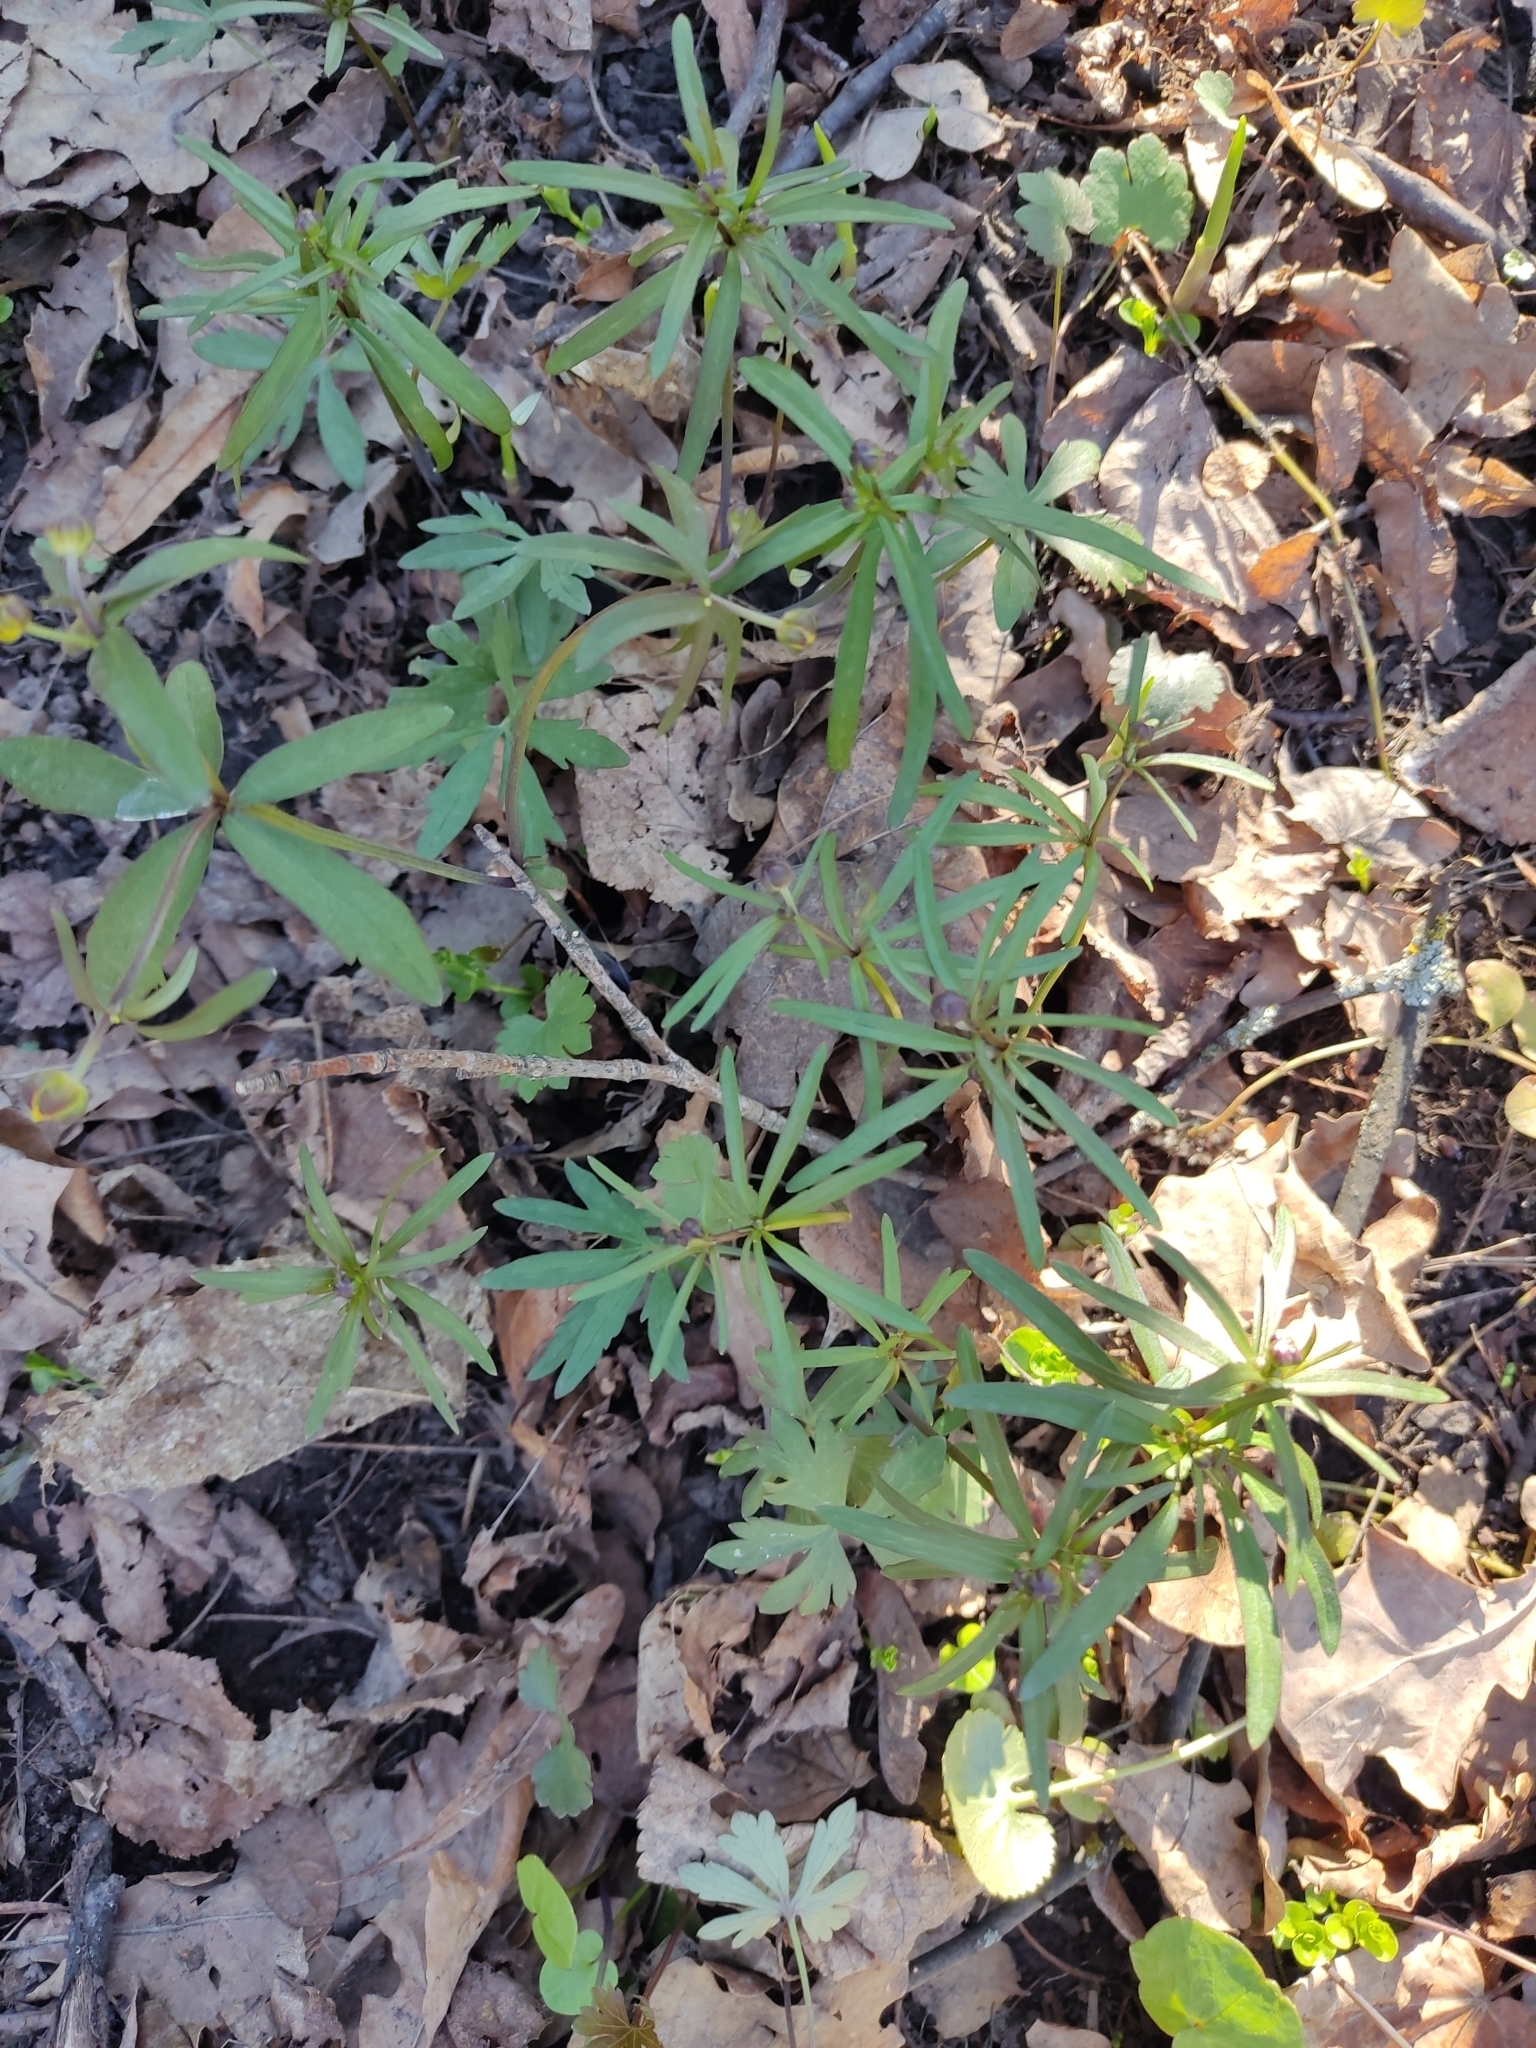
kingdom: Plantae
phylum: Tracheophyta
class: Magnoliopsida
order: Ranunculales
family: Ranunculaceae
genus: Ranunculus
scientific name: Ranunculus auricomus
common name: Goldilocks buttercup
